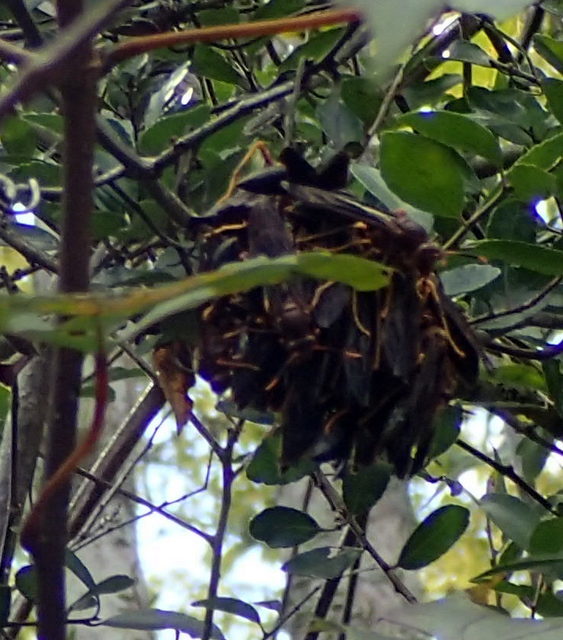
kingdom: Animalia
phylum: Arthropoda
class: Insecta
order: Hymenoptera
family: Eumenidae
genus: Polistes
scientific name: Polistes annularis
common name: Ringed paper wasp
